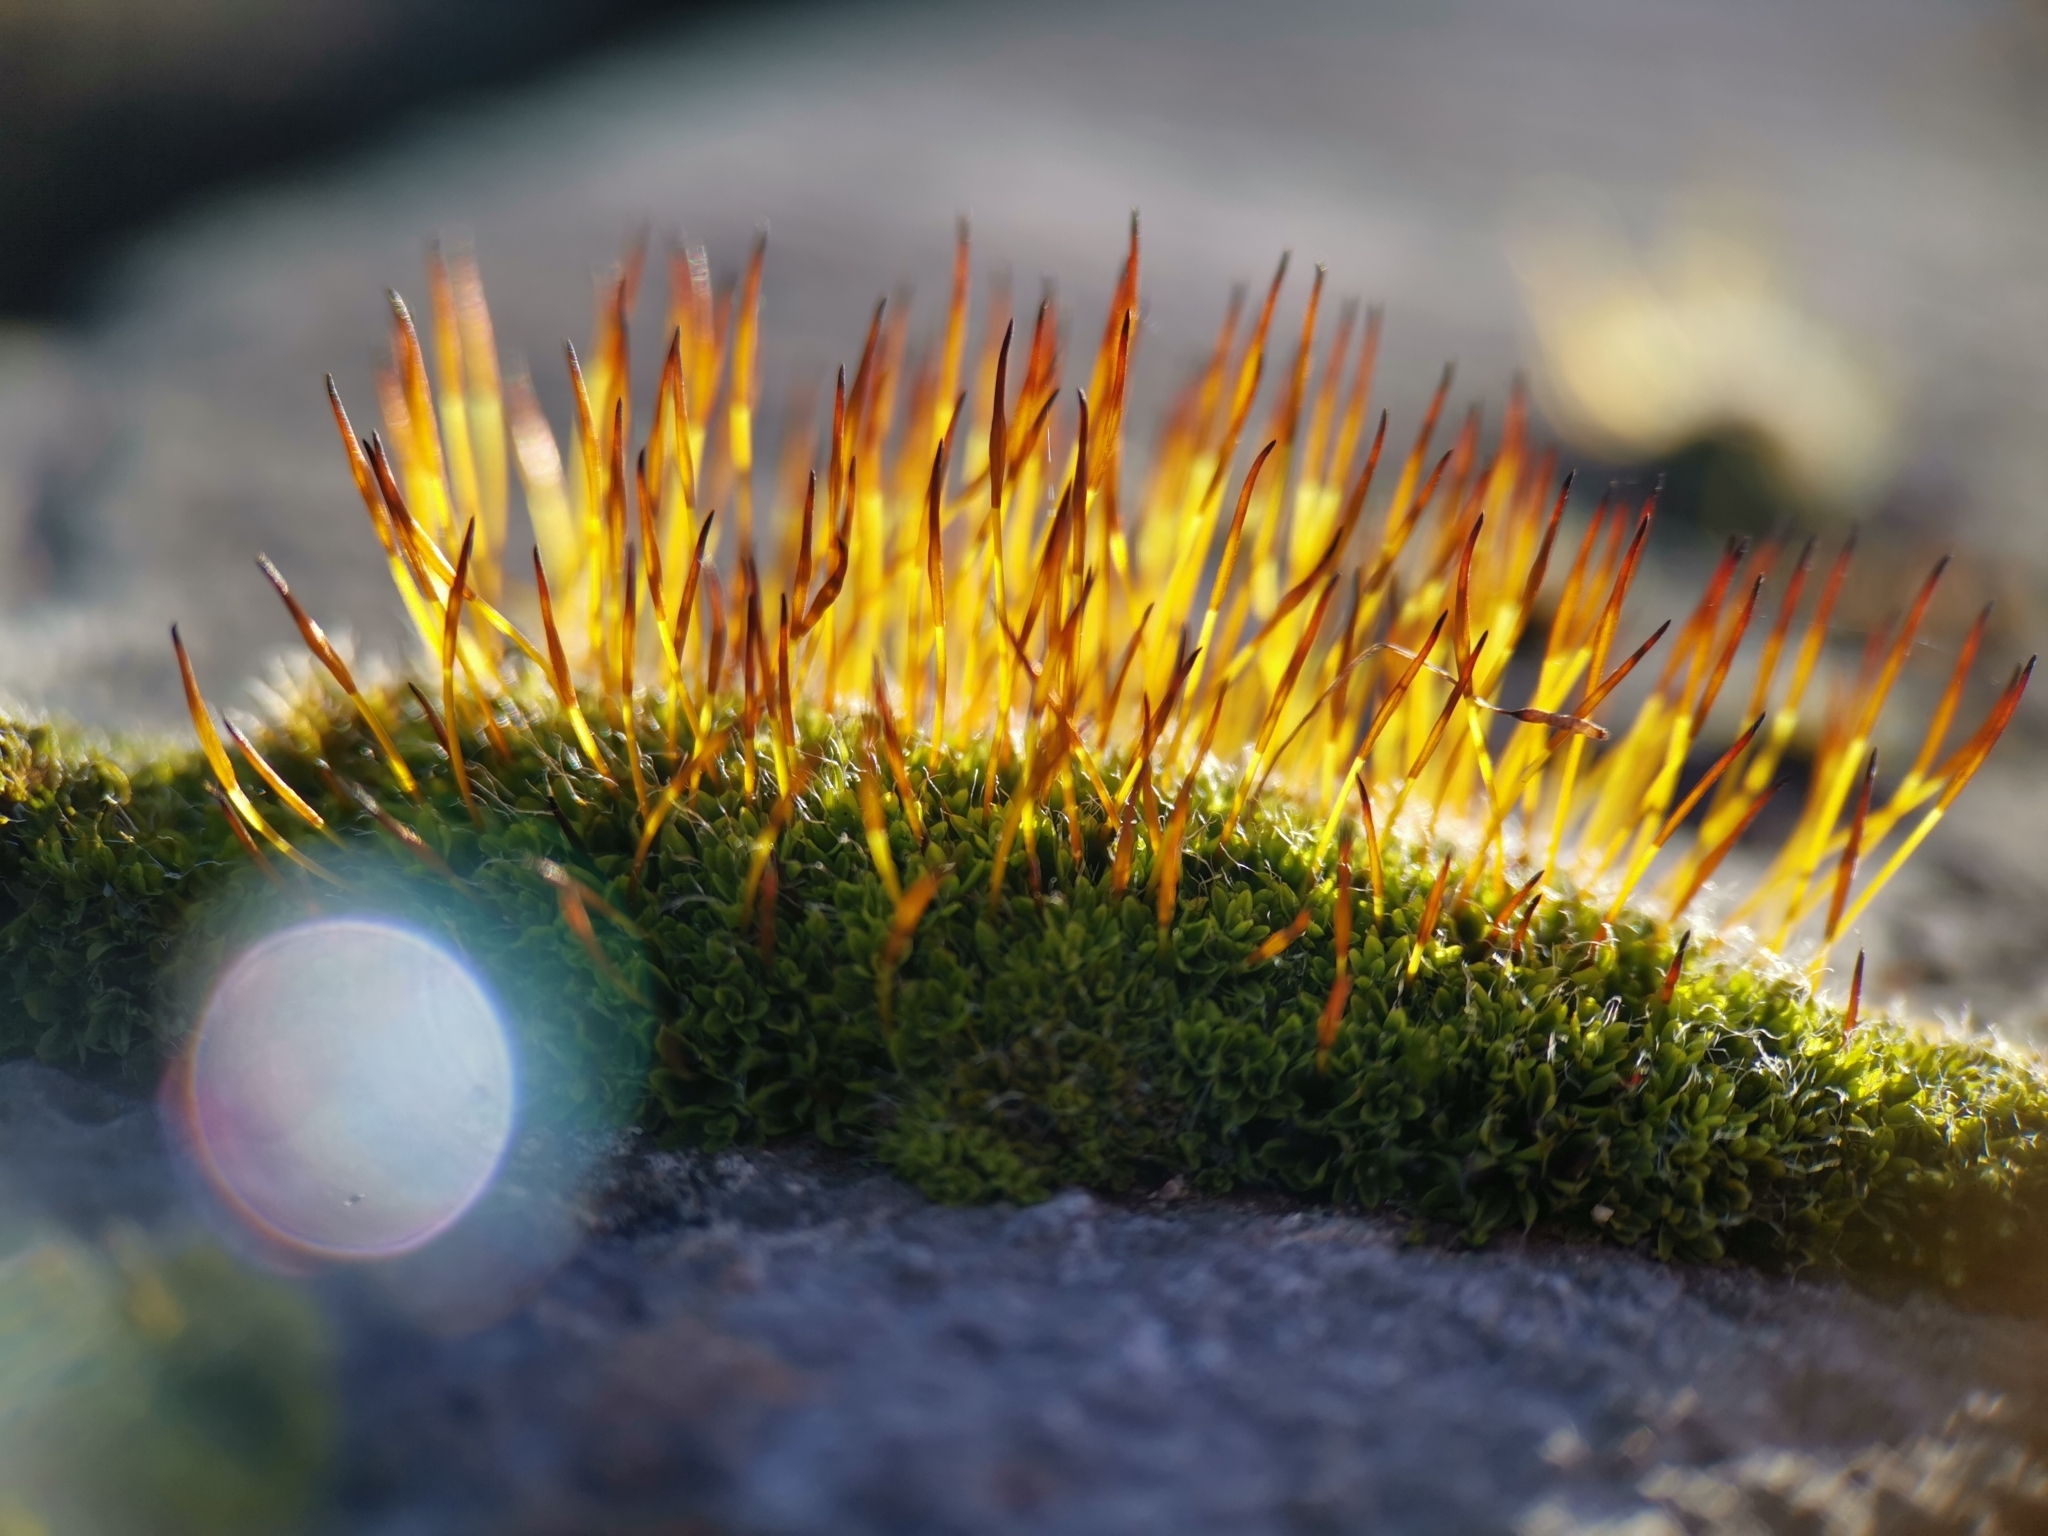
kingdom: Plantae
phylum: Bryophyta
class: Bryopsida
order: Pottiales
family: Pottiaceae
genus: Tortula
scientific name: Tortula muralis
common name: Wall screw-moss
